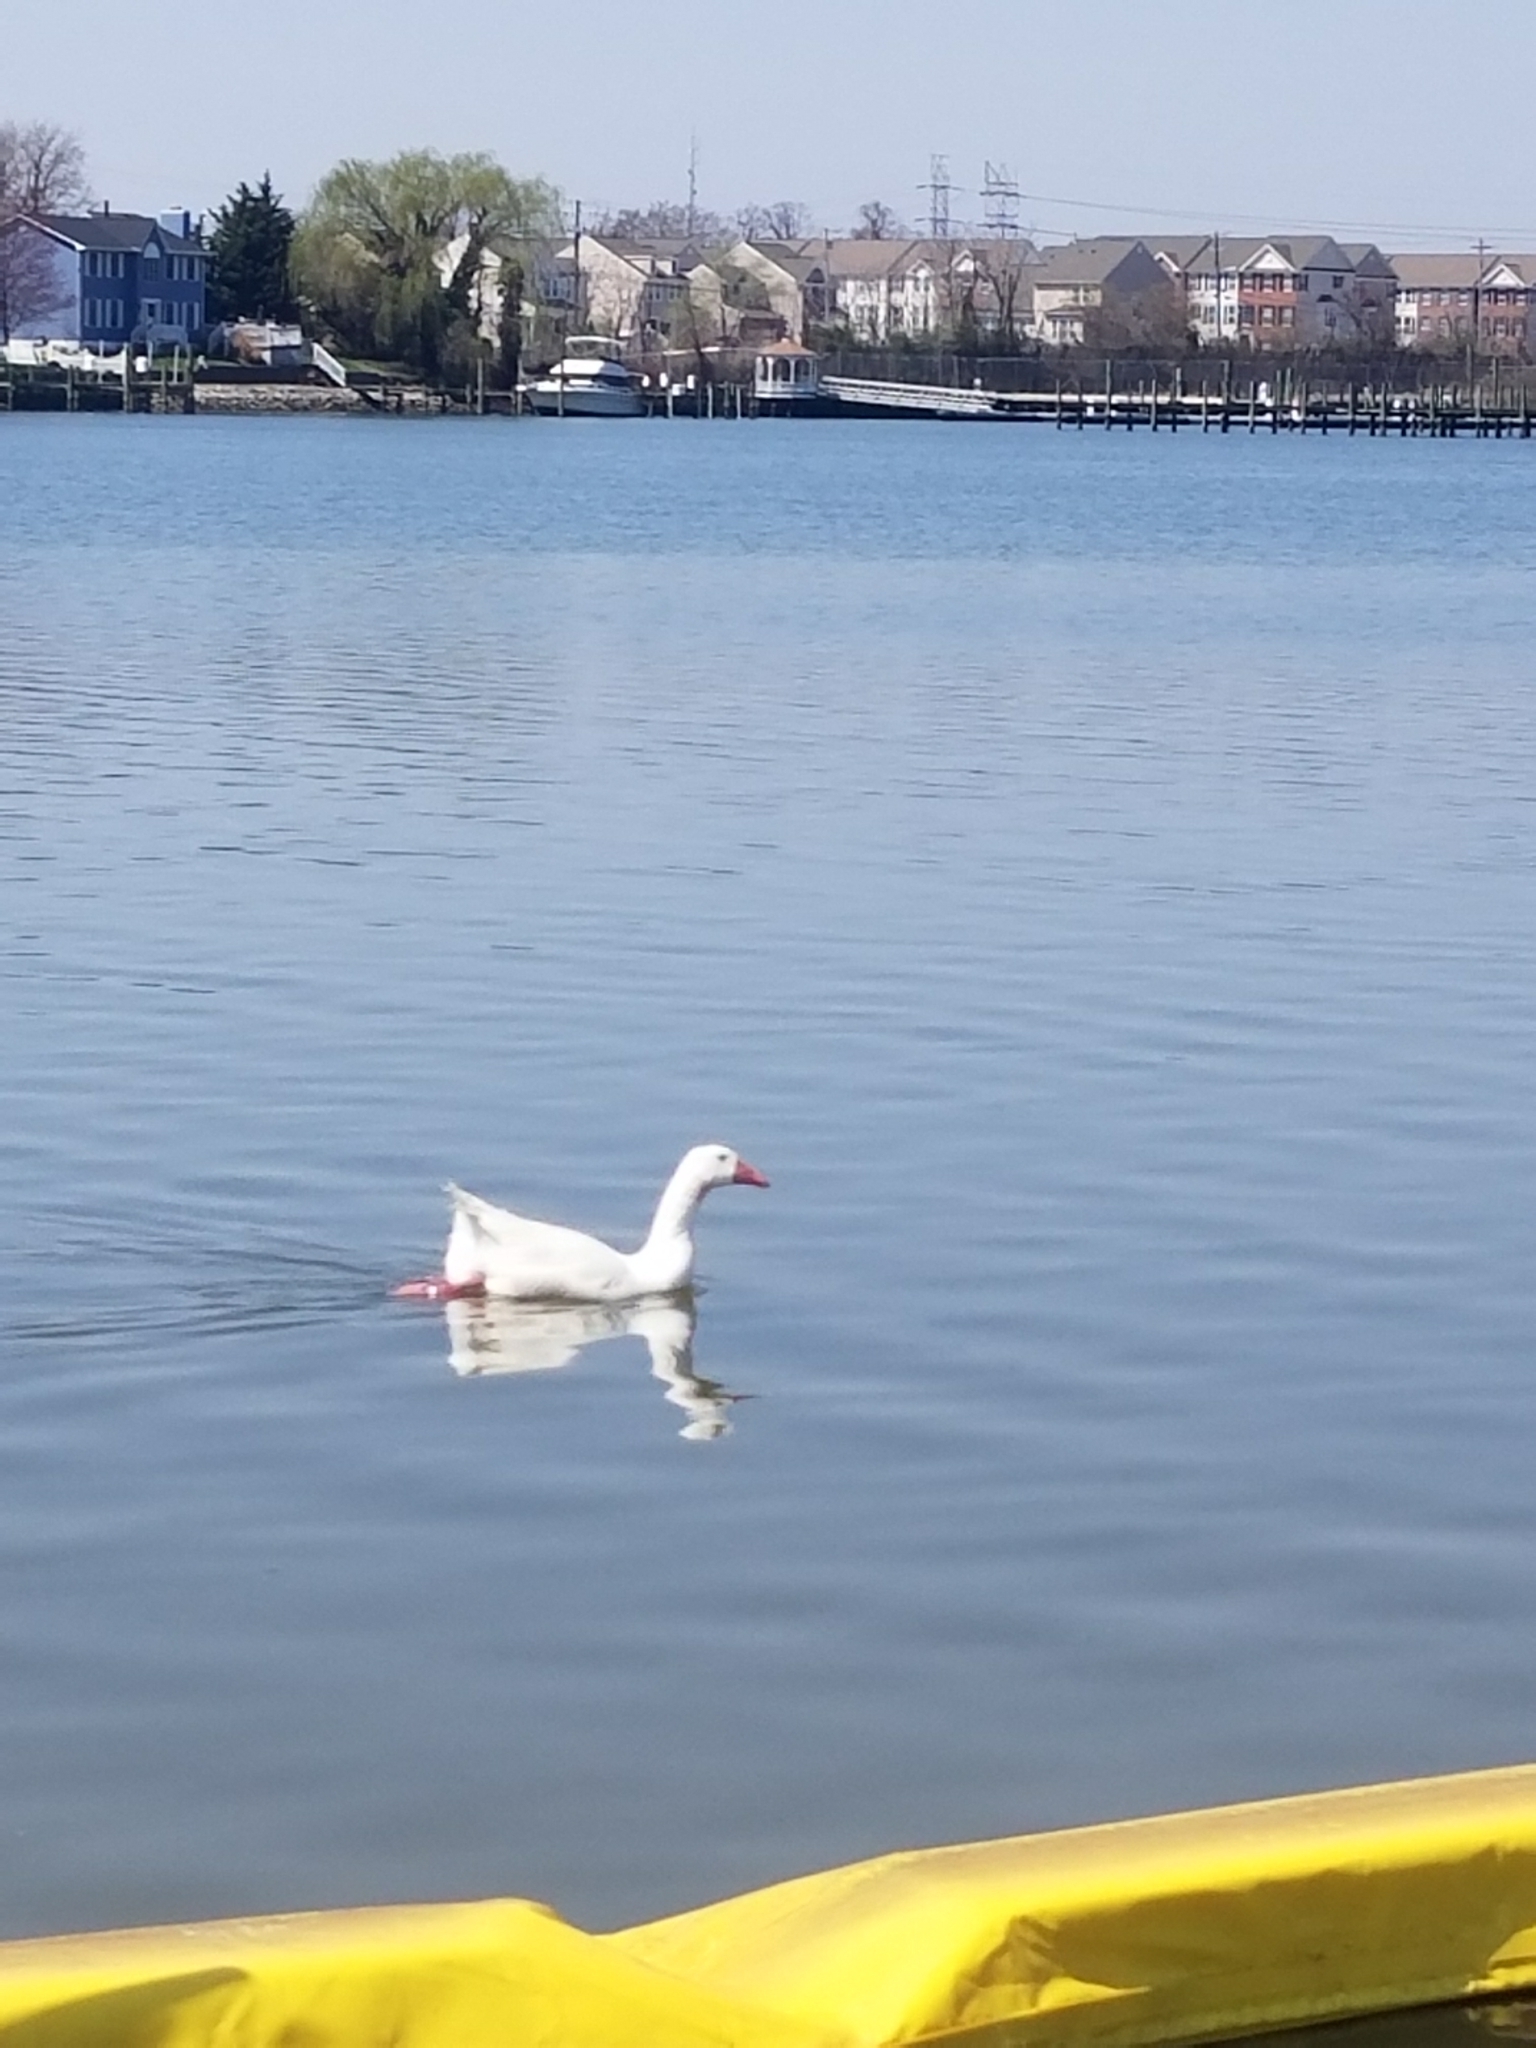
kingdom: Animalia
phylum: Chordata
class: Aves
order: Anseriformes
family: Anatidae
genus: Anser
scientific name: Anser anser
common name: Greylag goose
